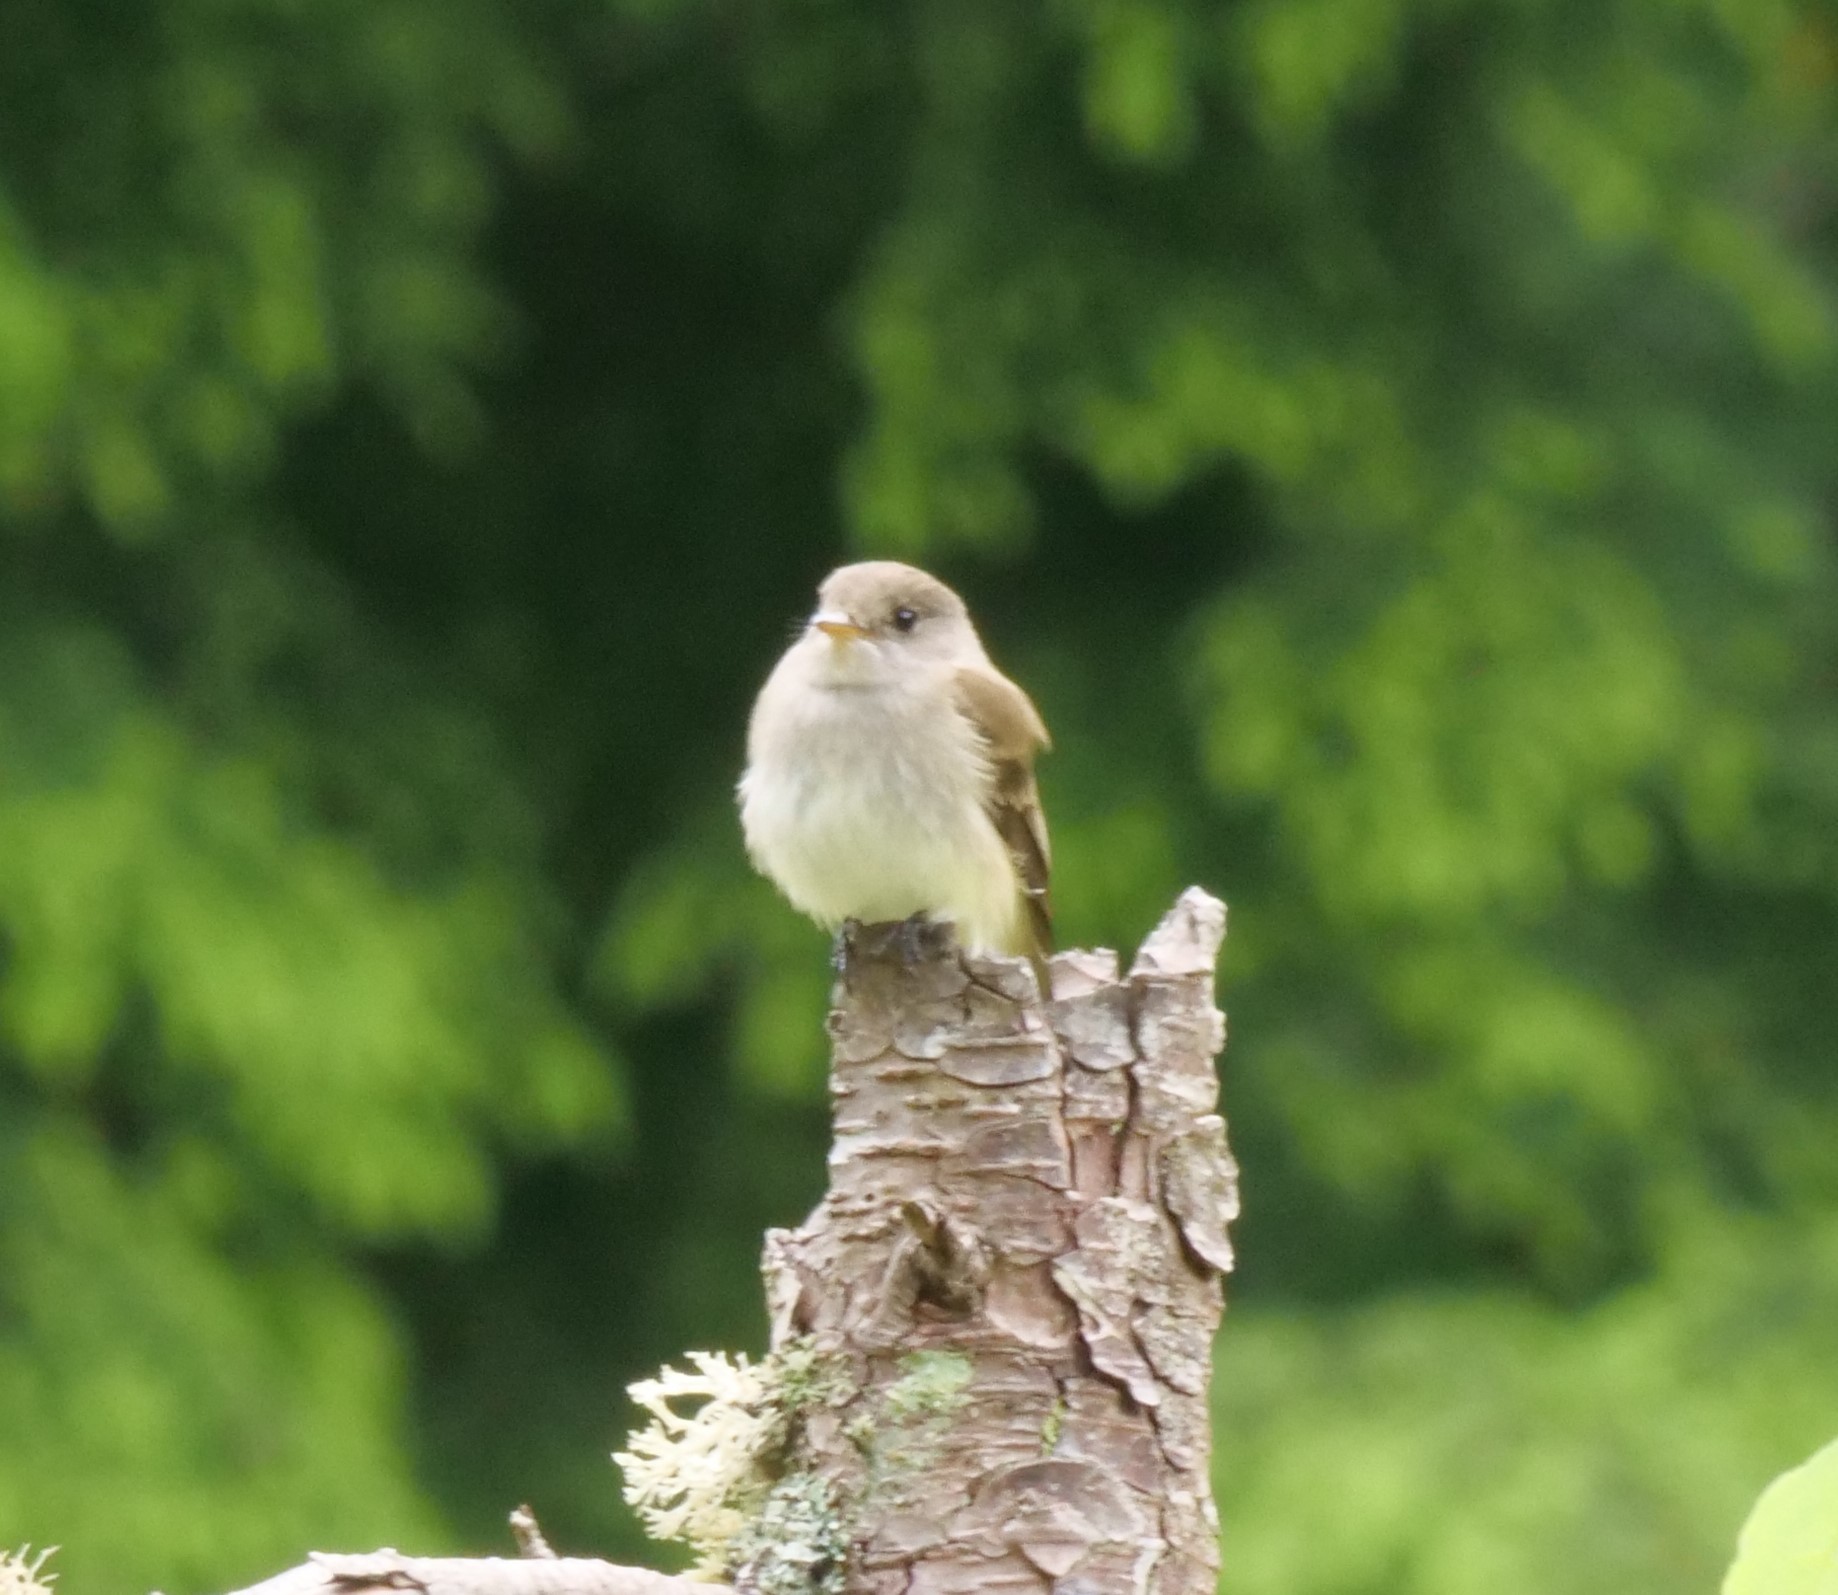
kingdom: Animalia
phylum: Chordata
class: Aves
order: Passeriformes
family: Tyrannidae
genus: Empidonax
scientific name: Empidonax traillii
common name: Willow flycatcher
